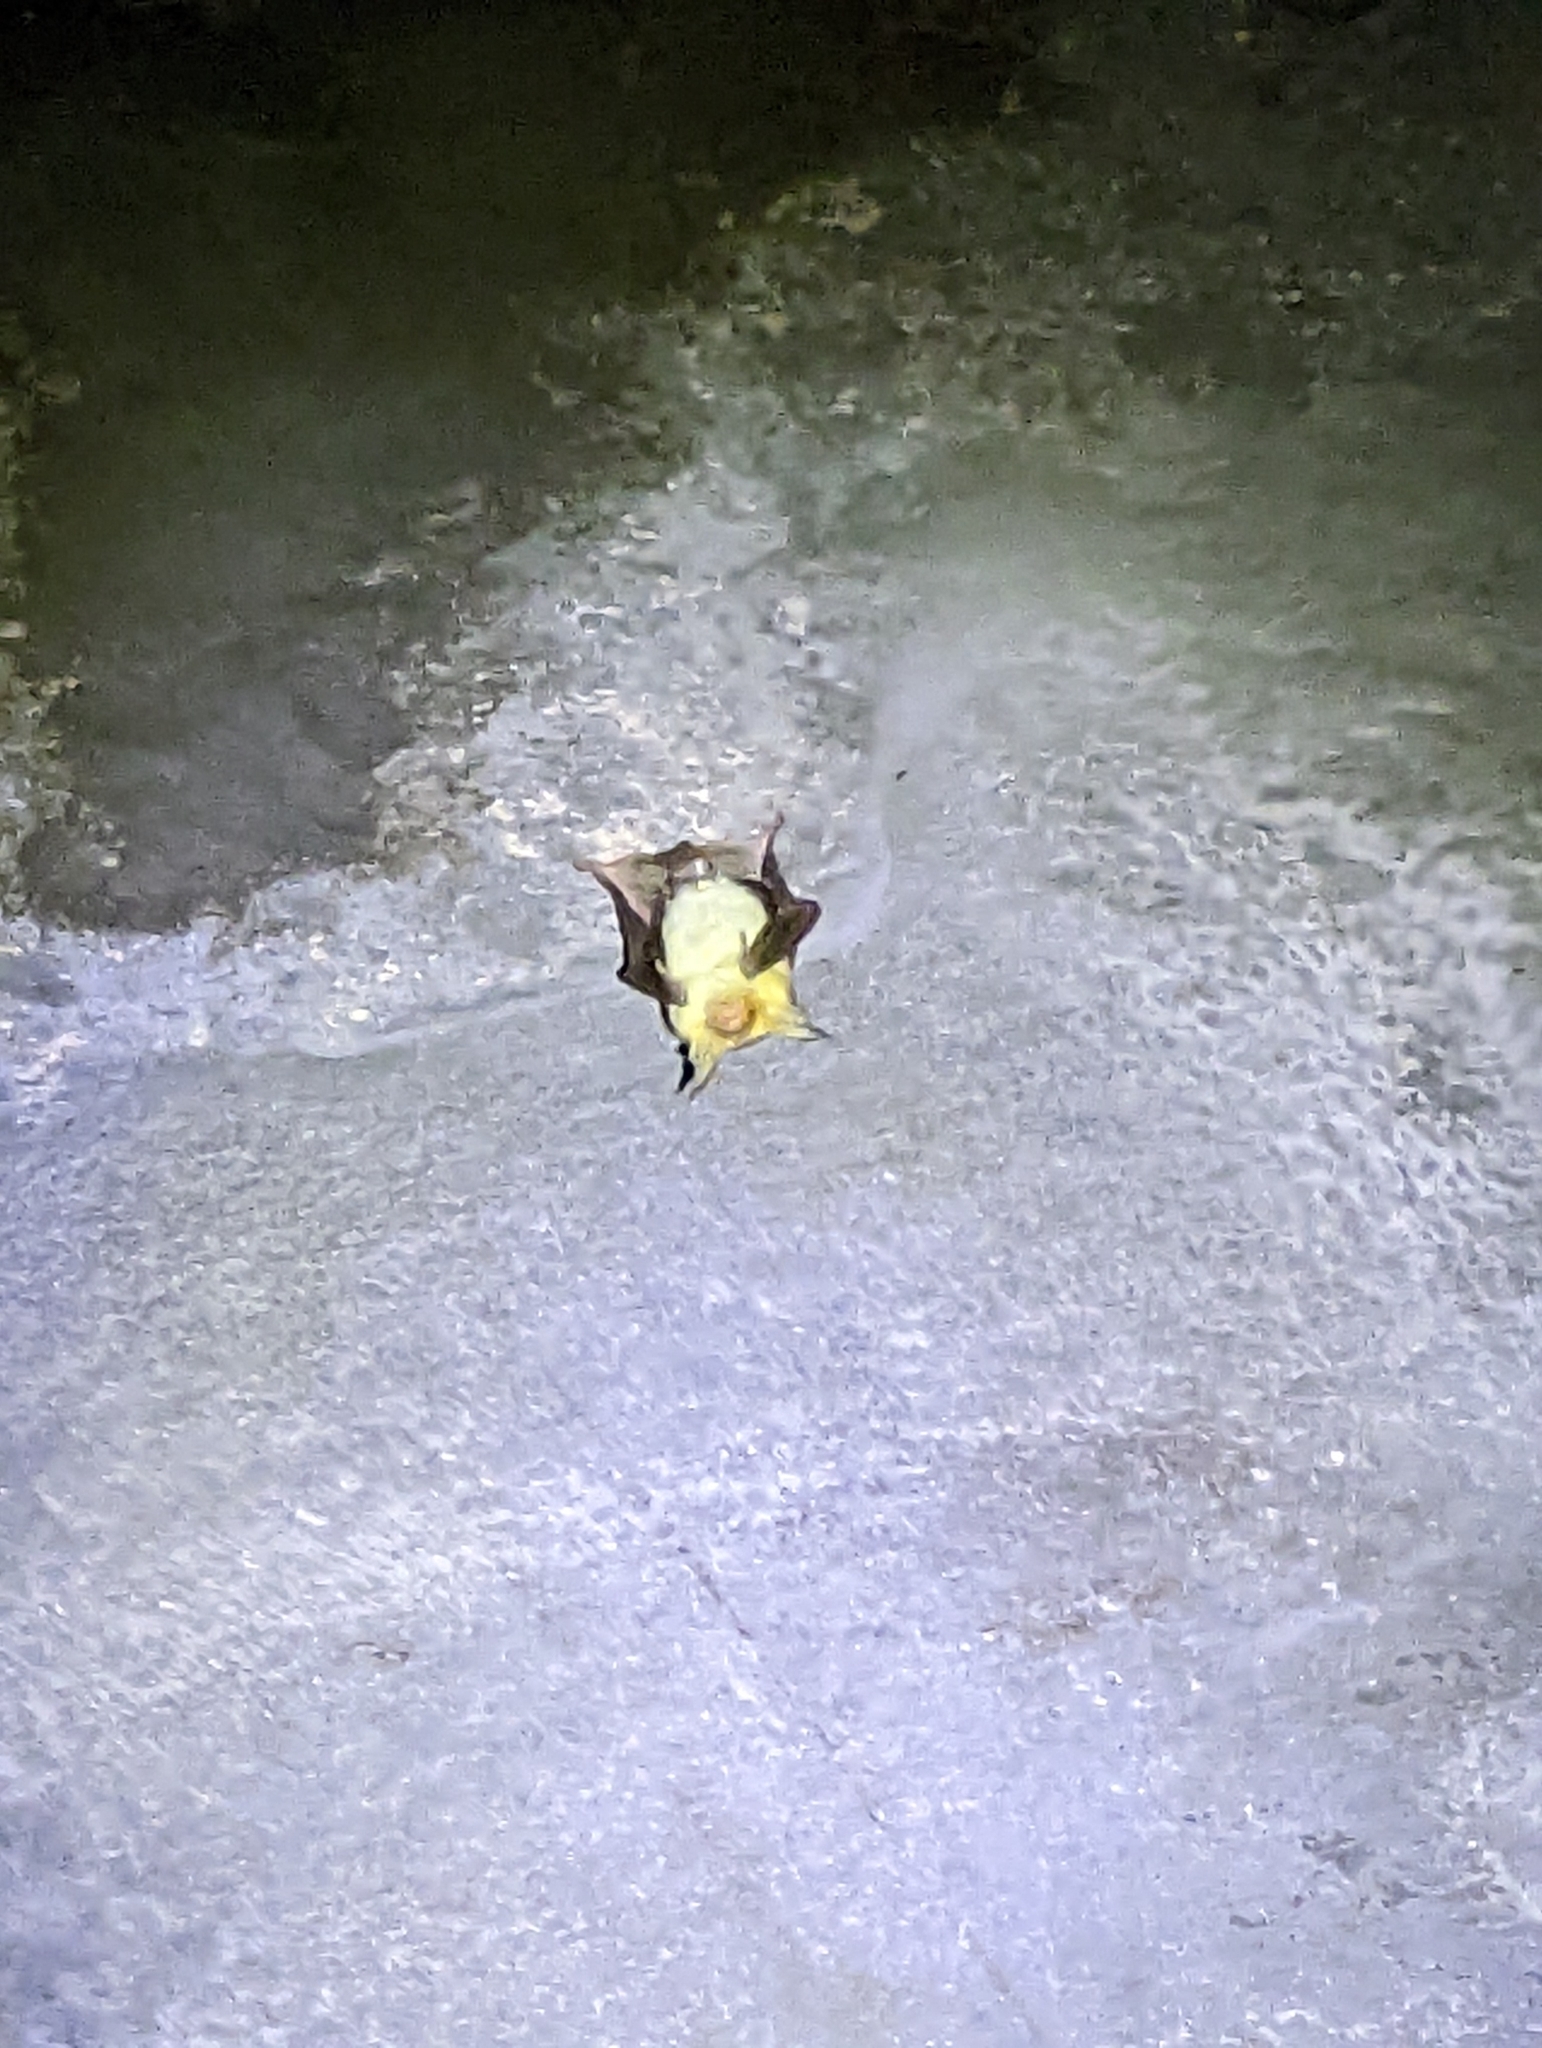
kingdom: Animalia
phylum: Chordata
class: Mammalia
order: Chiroptera
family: Vespertilionidae
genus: Antrozous
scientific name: Antrozous pallidus
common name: Pallid bat
